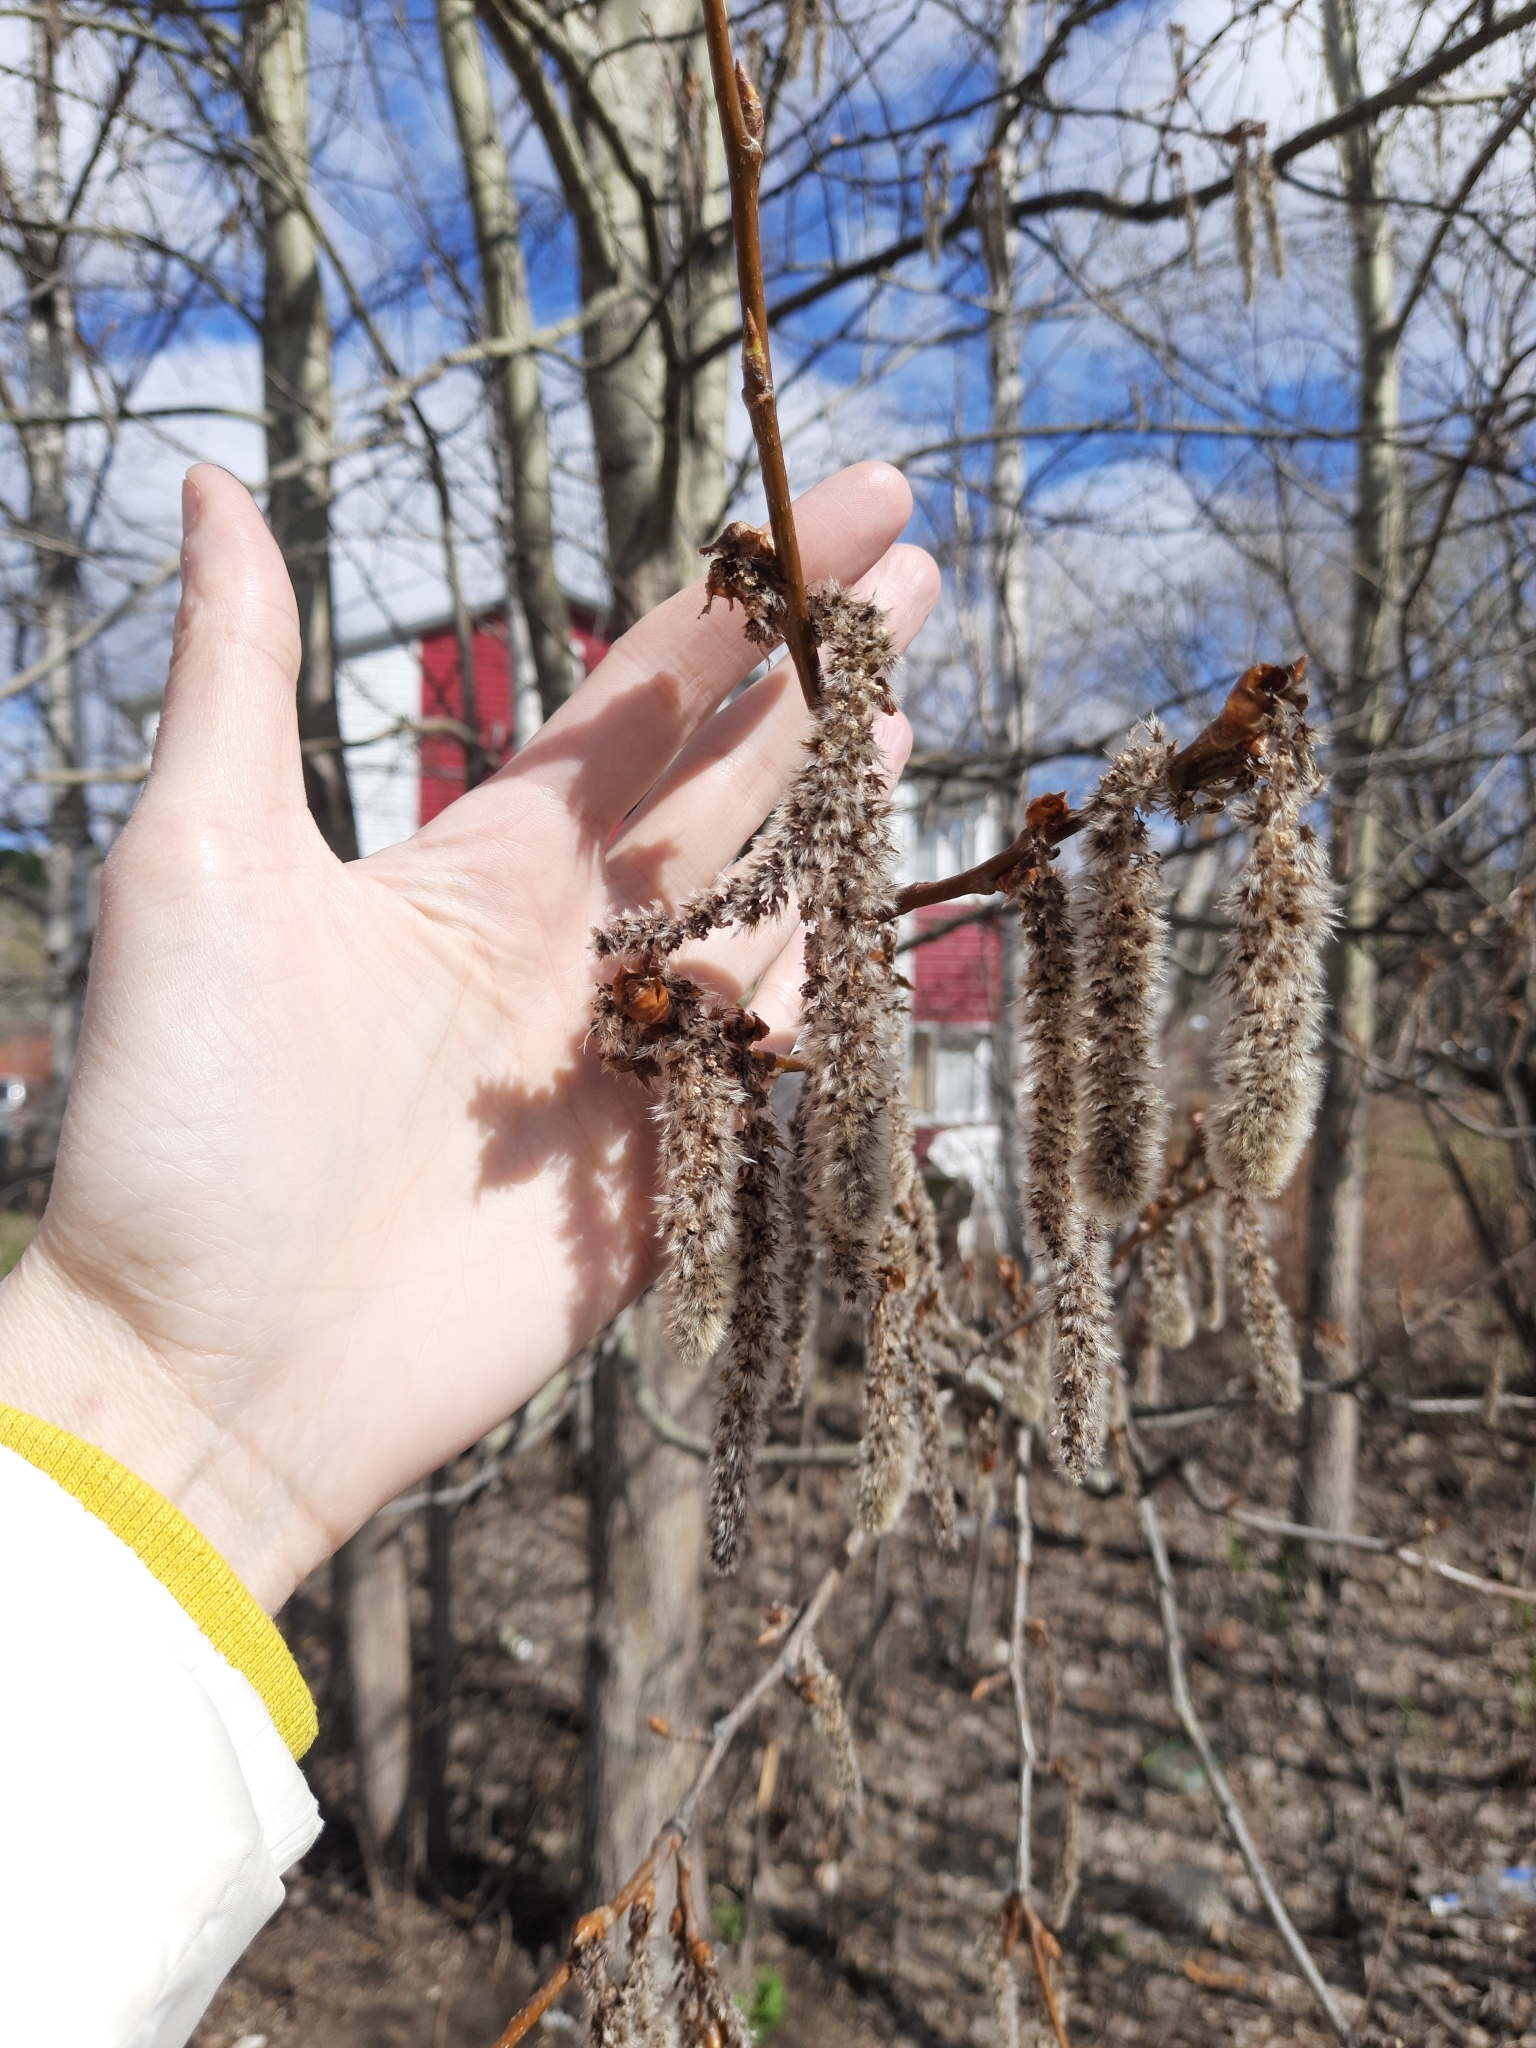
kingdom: Plantae
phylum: Tracheophyta
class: Magnoliopsida
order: Malpighiales
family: Salicaceae
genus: Populus
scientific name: Populus tremula
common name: European aspen
